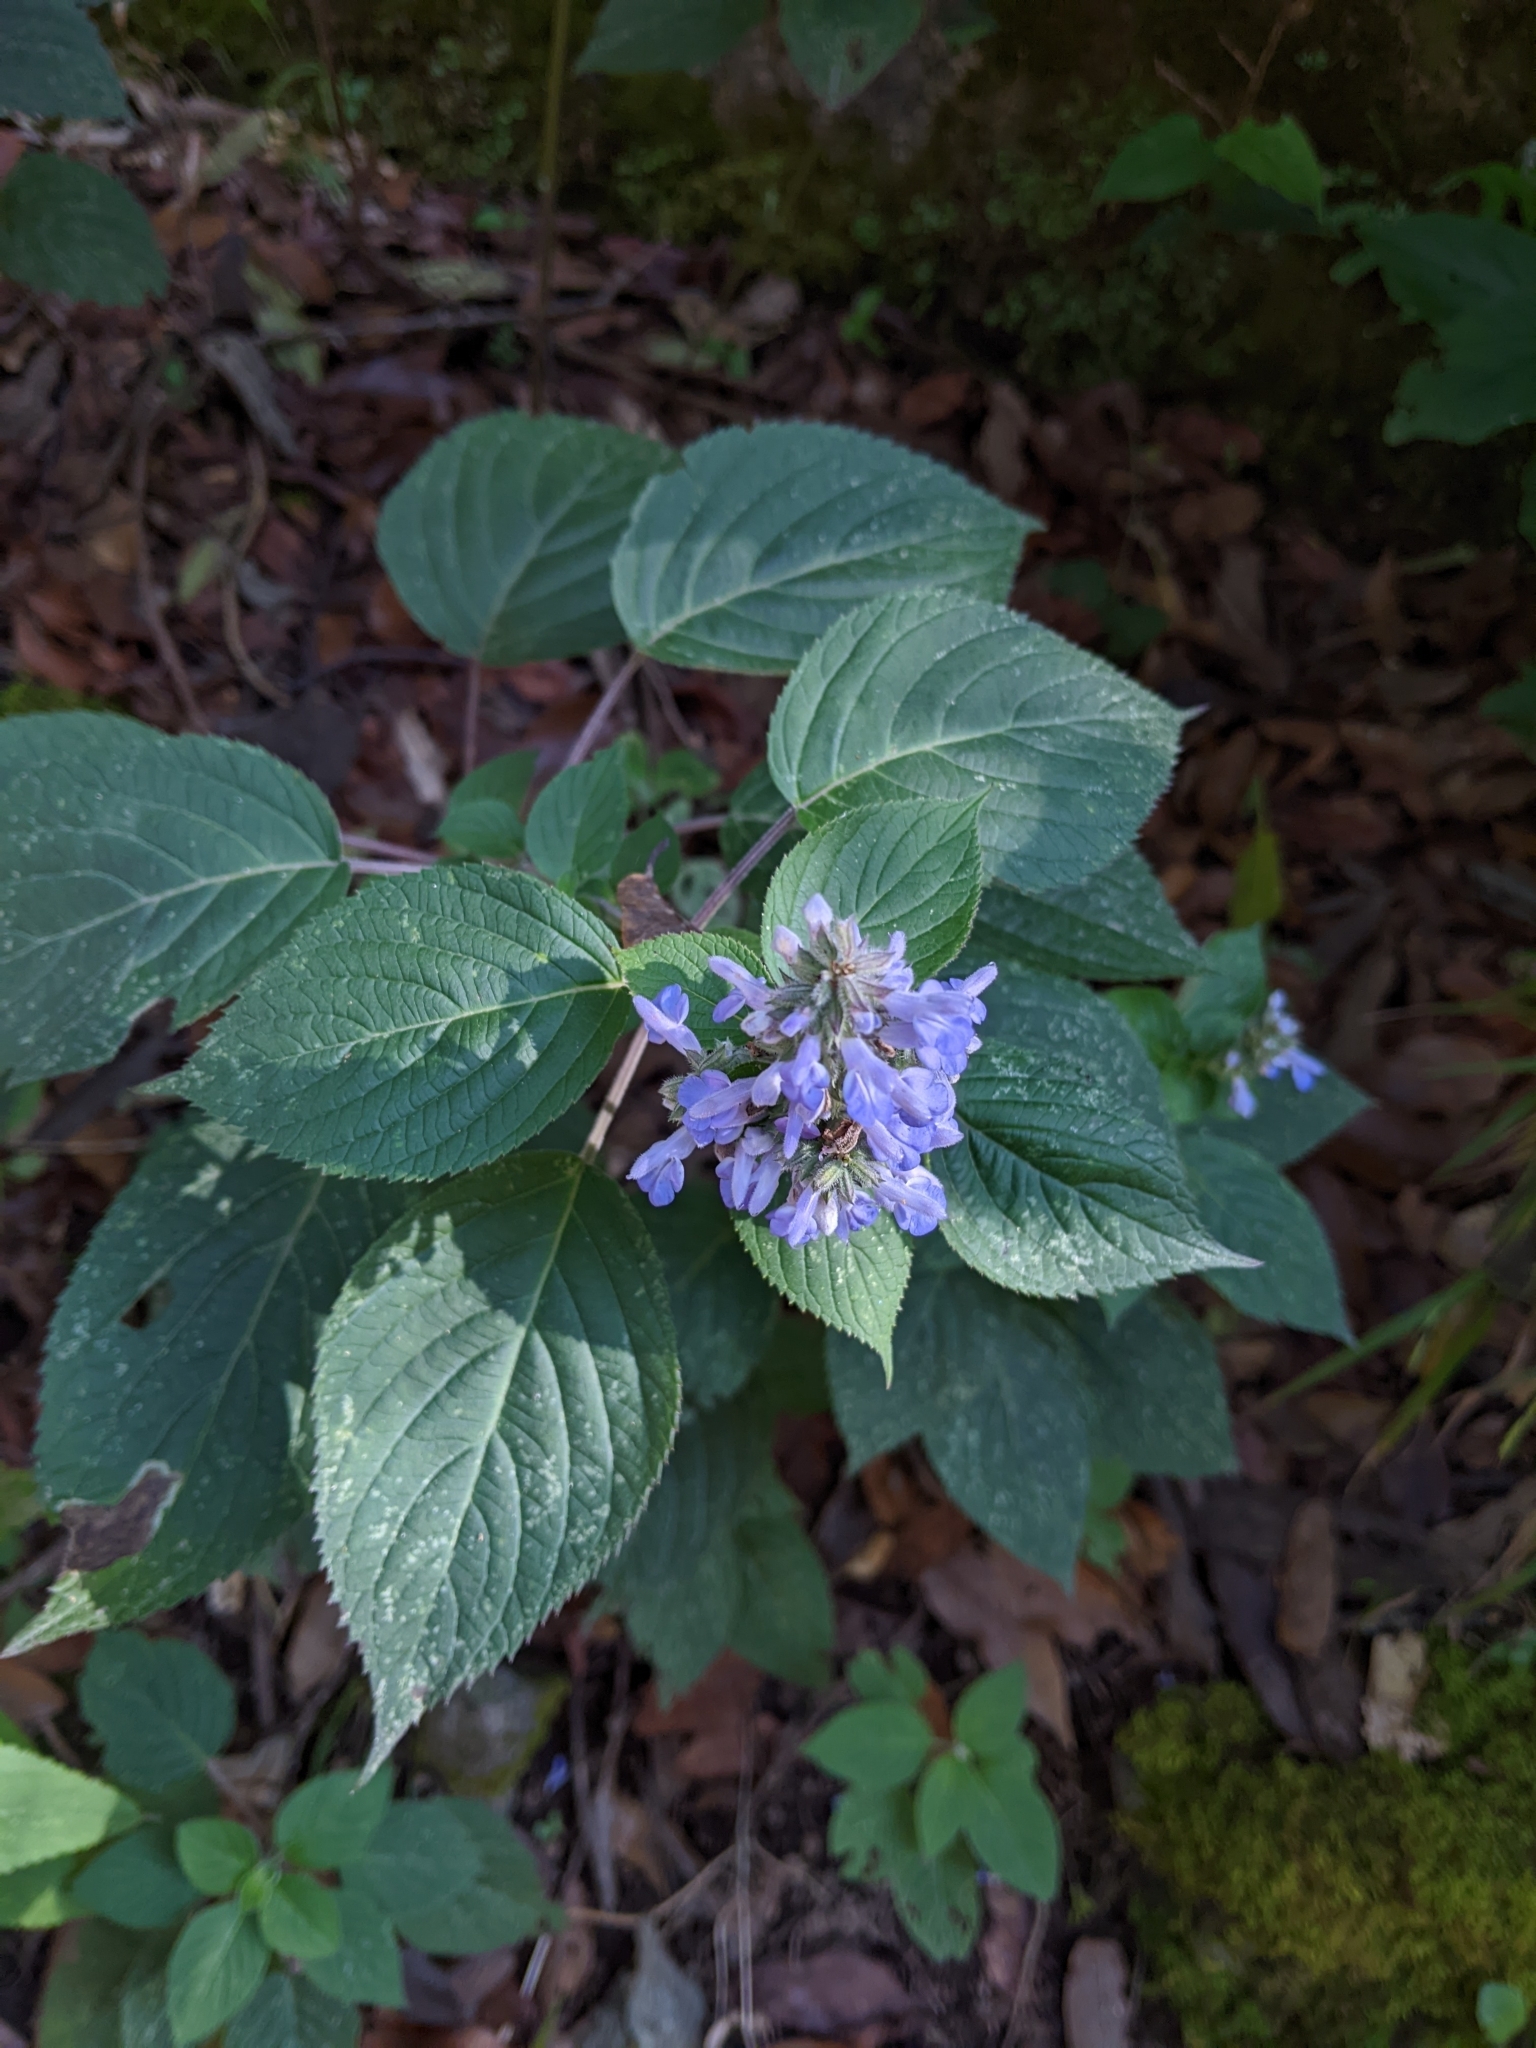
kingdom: Plantae
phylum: Tracheophyta
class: Magnoliopsida
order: Lamiales
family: Lamiaceae
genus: Salvia
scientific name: Salvia polystachia
